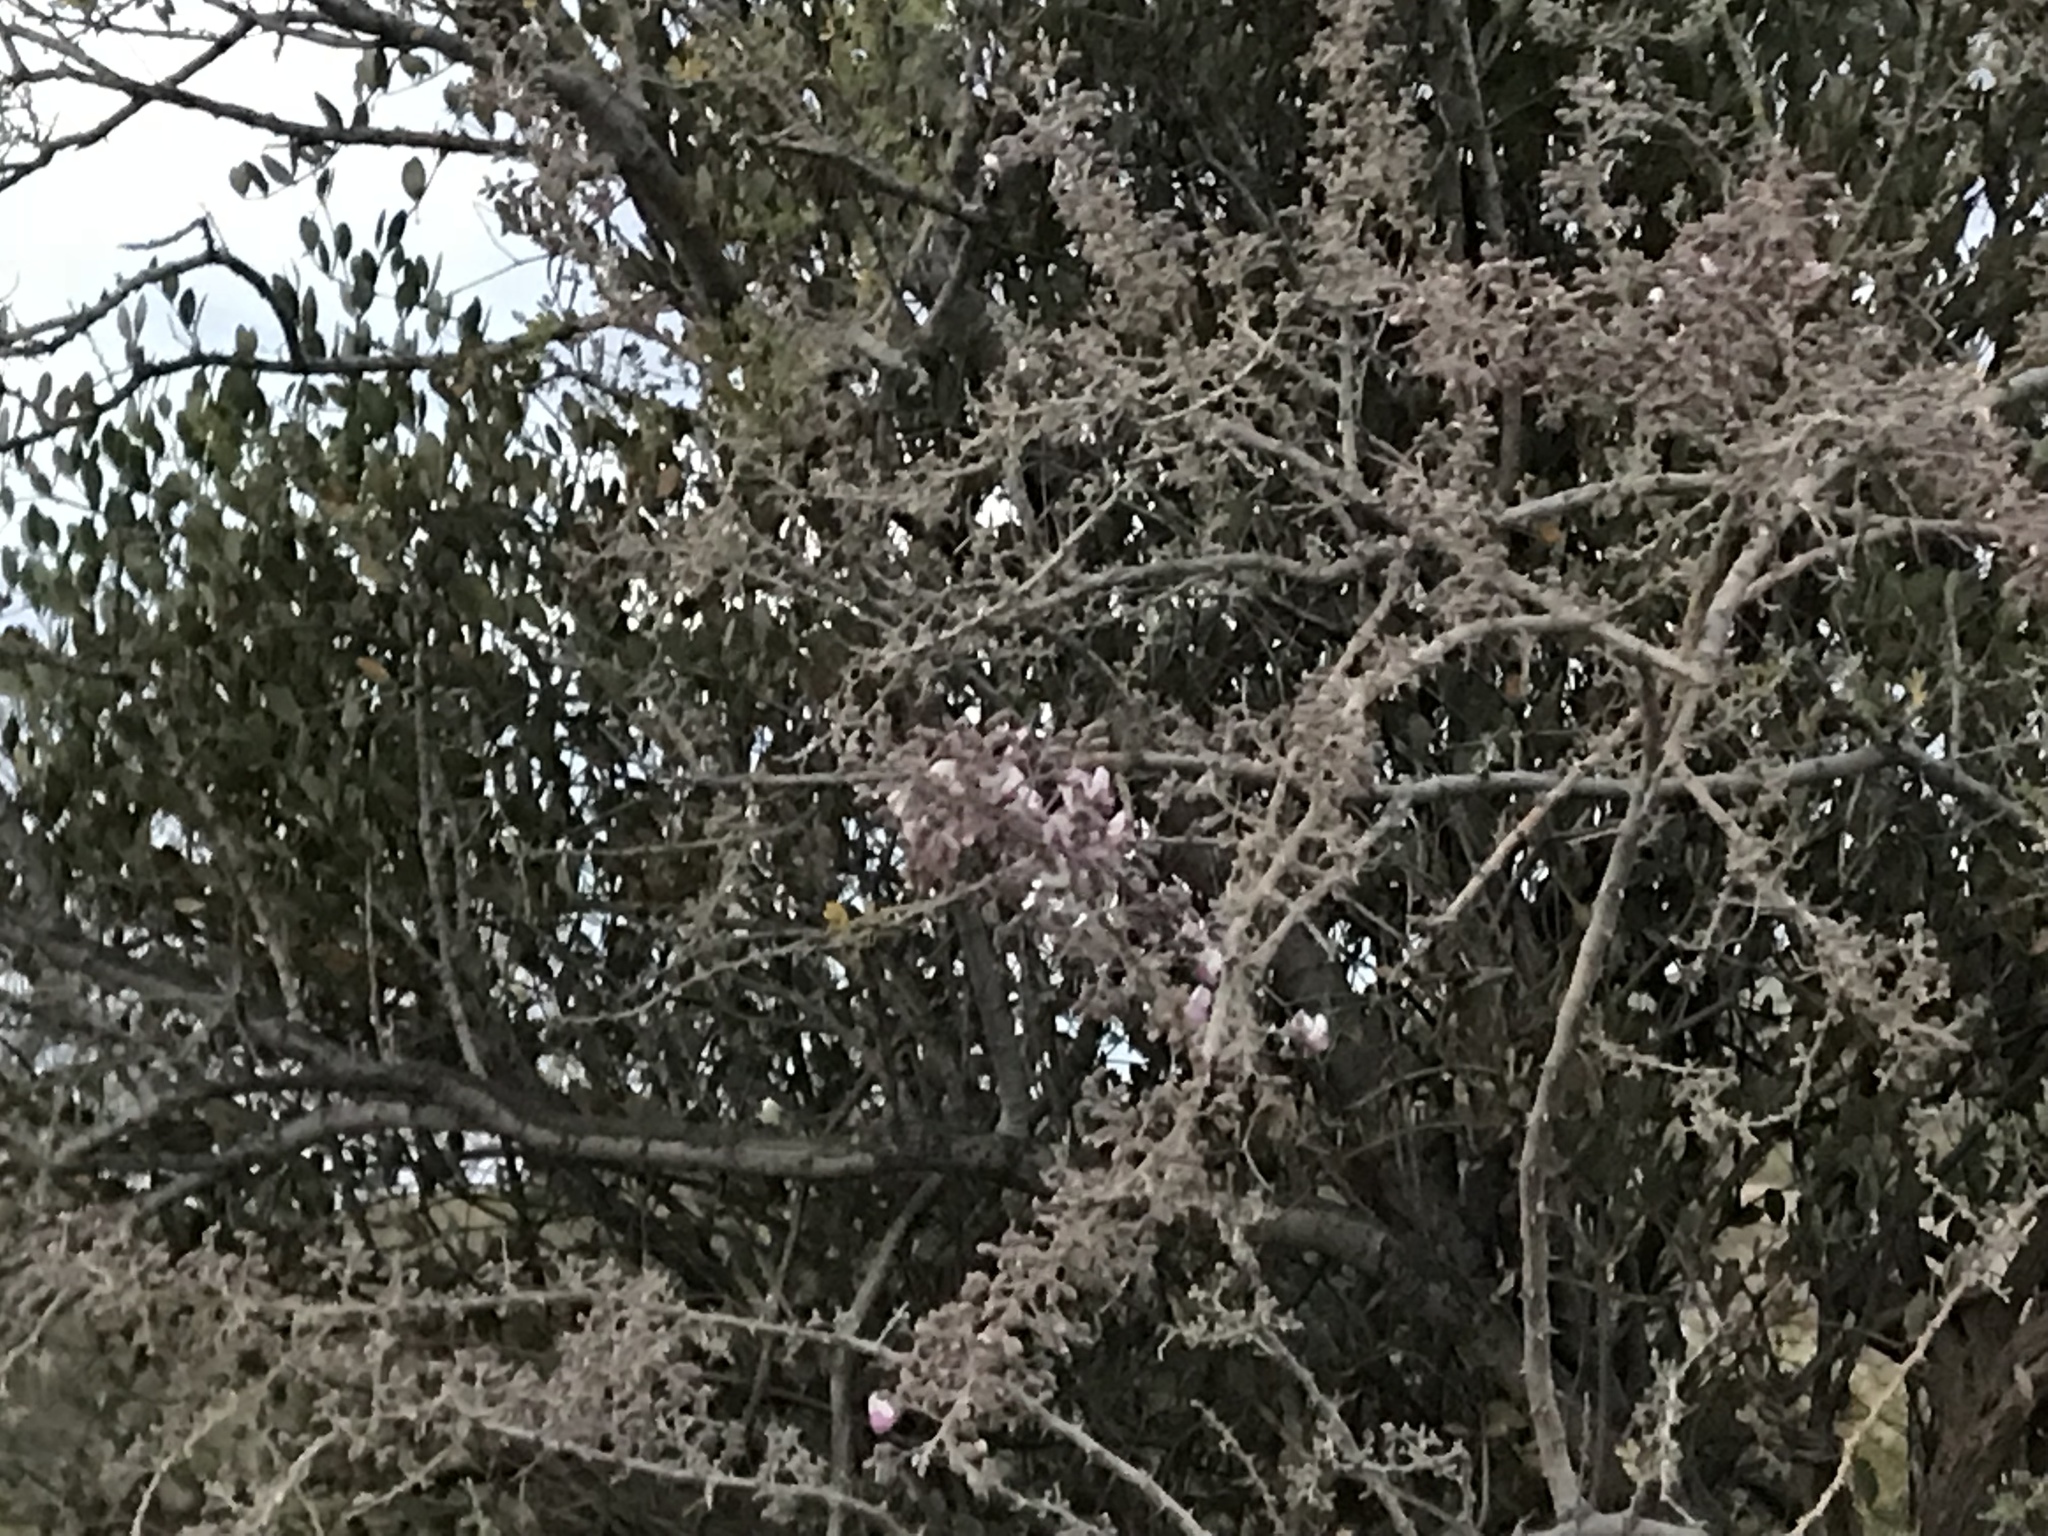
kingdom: Plantae
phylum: Tracheophyta
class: Magnoliopsida
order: Fabales
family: Fabaceae
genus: Olneya
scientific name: Olneya tesota
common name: Desert ironwood
